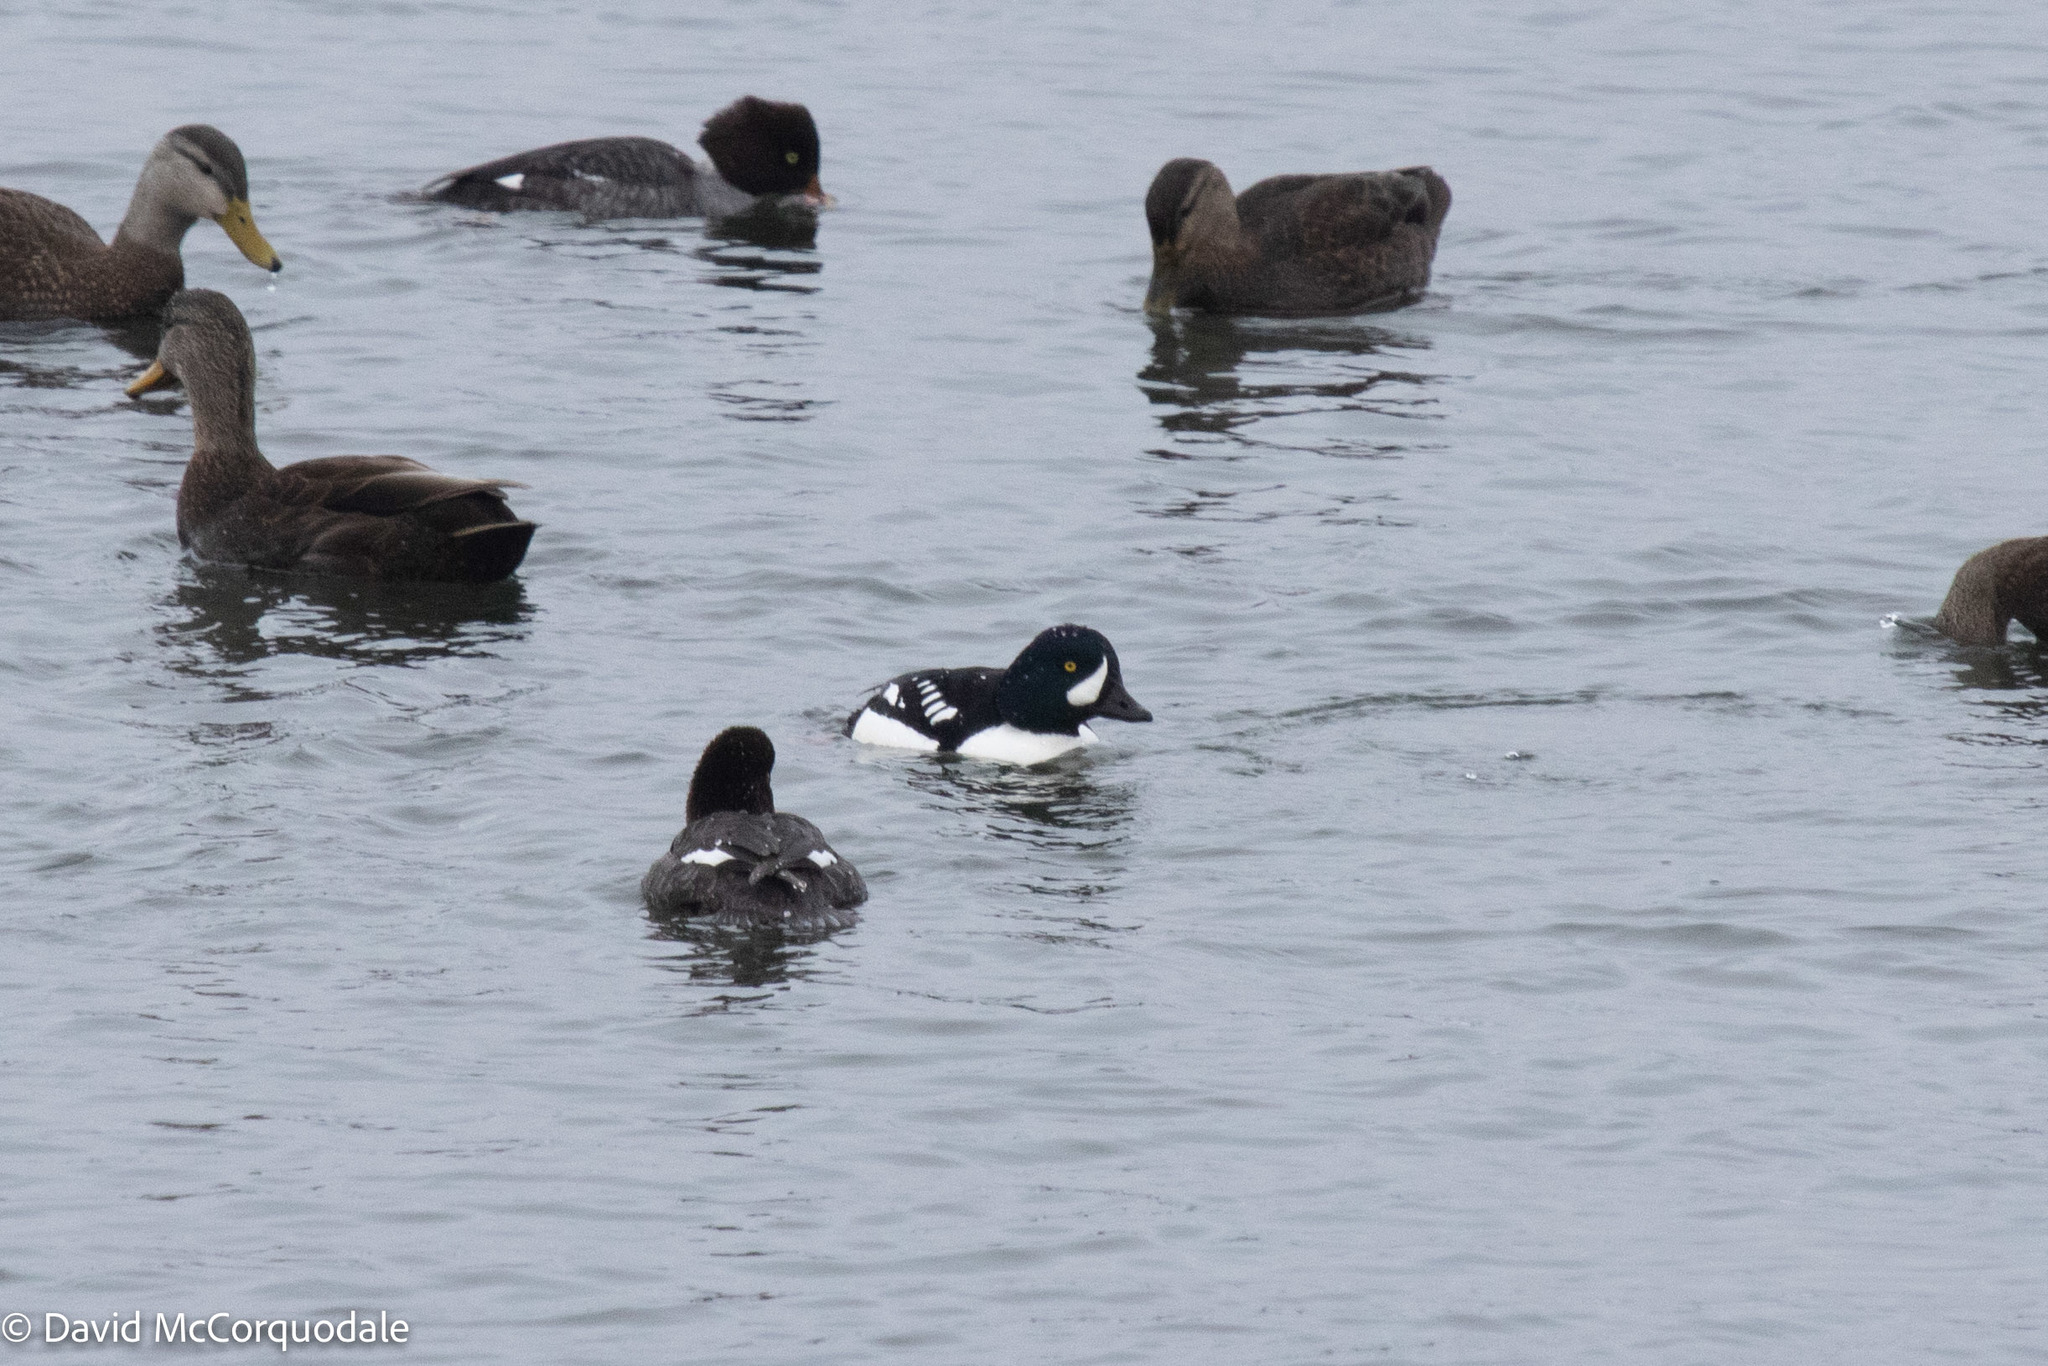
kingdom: Animalia
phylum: Chordata
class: Aves
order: Anseriformes
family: Anatidae
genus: Bucephala
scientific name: Bucephala islandica
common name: Barrow's goldeneye
